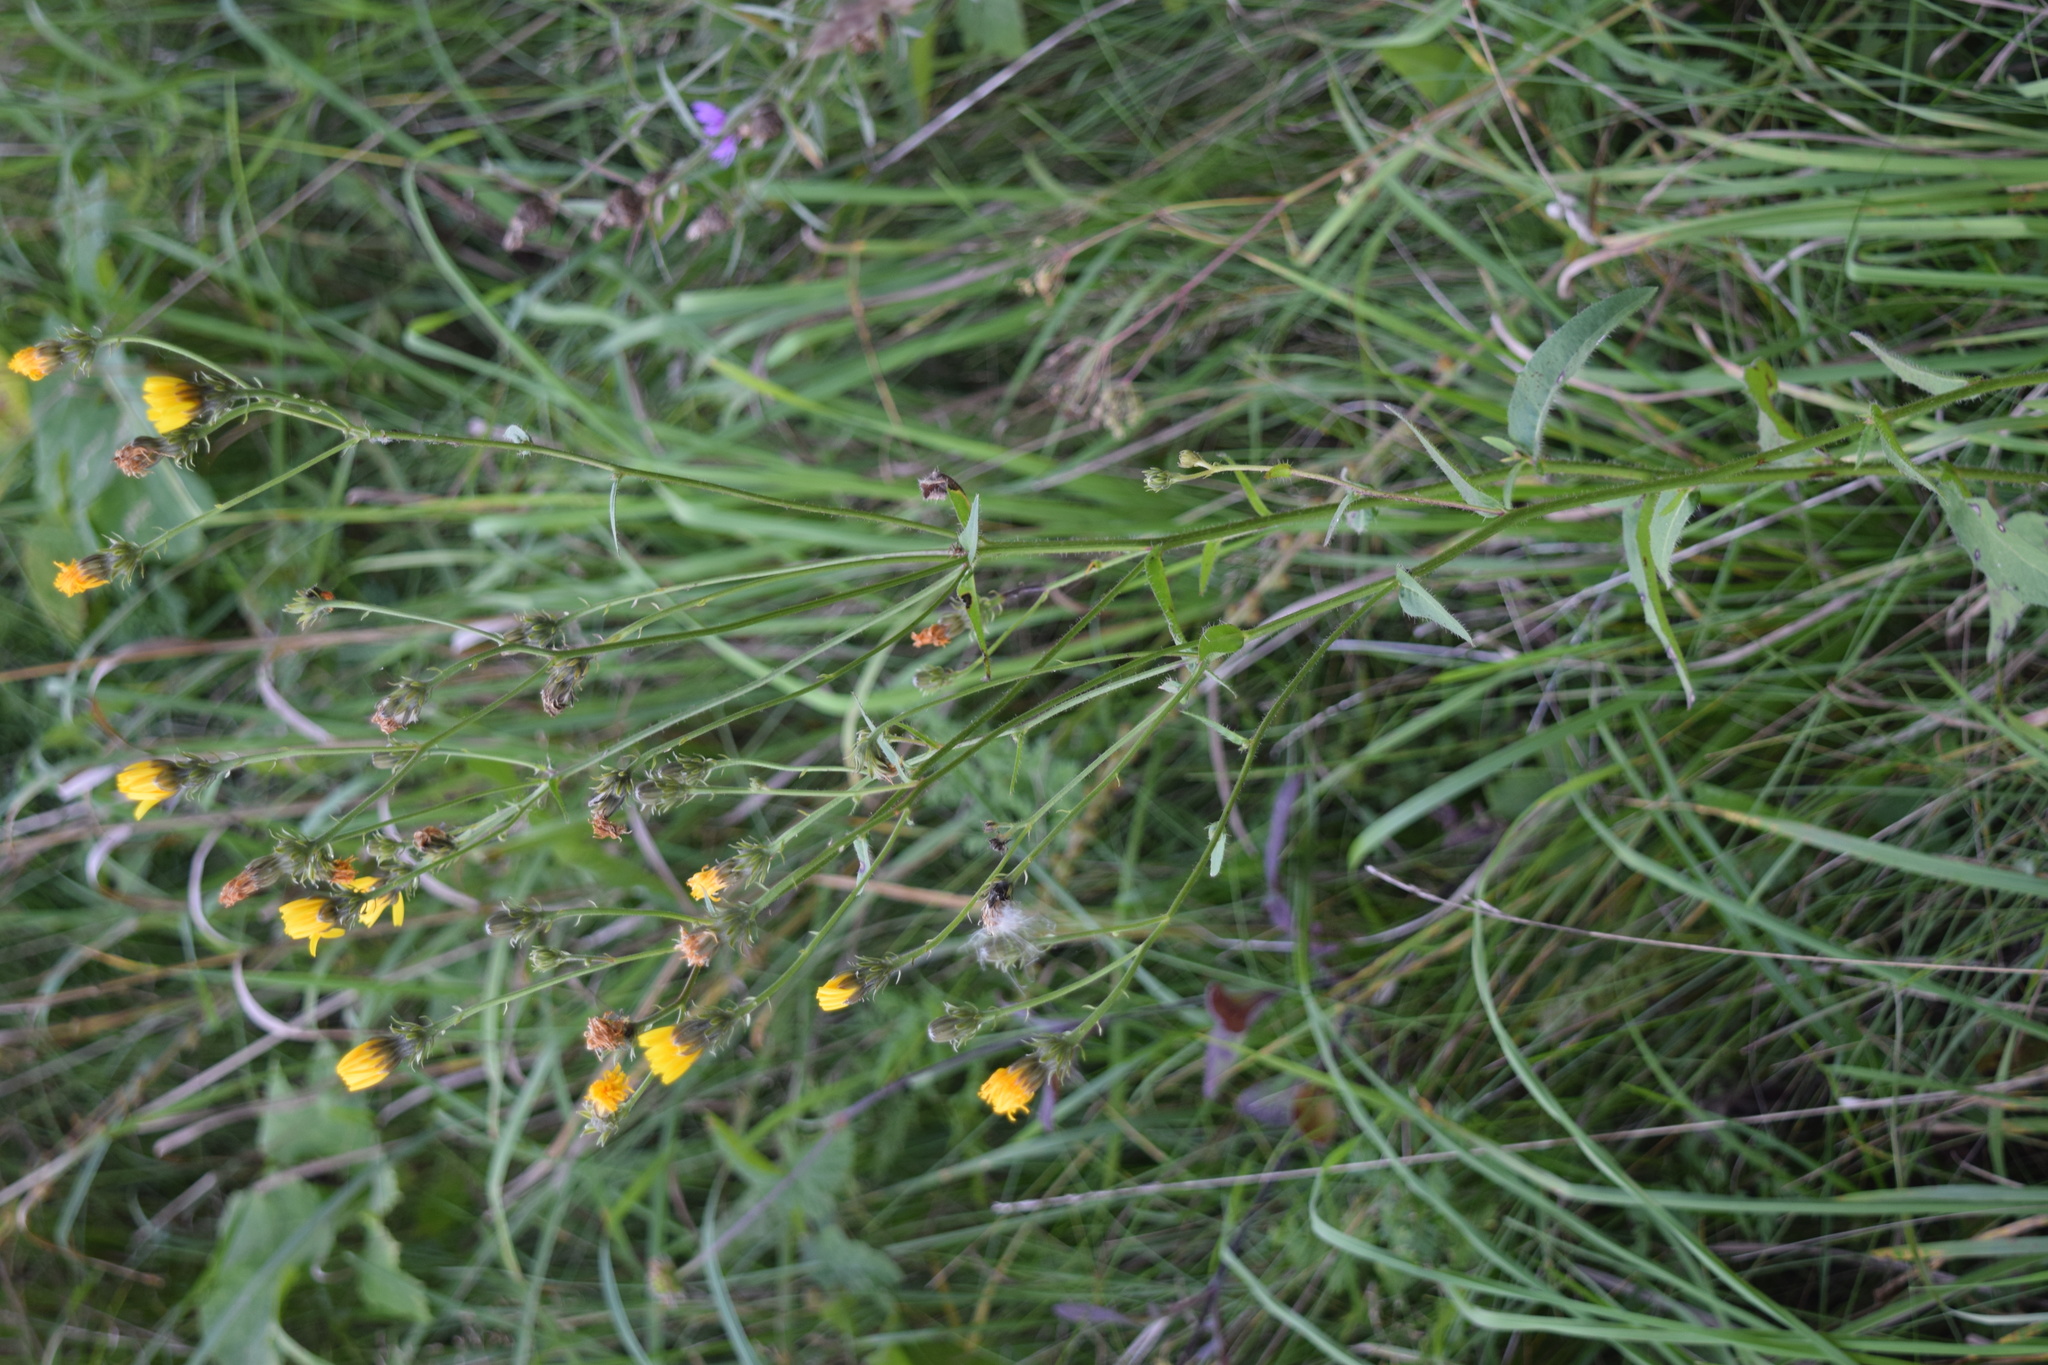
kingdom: Plantae
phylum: Tracheophyta
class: Magnoliopsida
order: Asterales
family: Asteraceae
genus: Picris
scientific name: Picris hieracioides
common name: Hawkweed oxtongue
